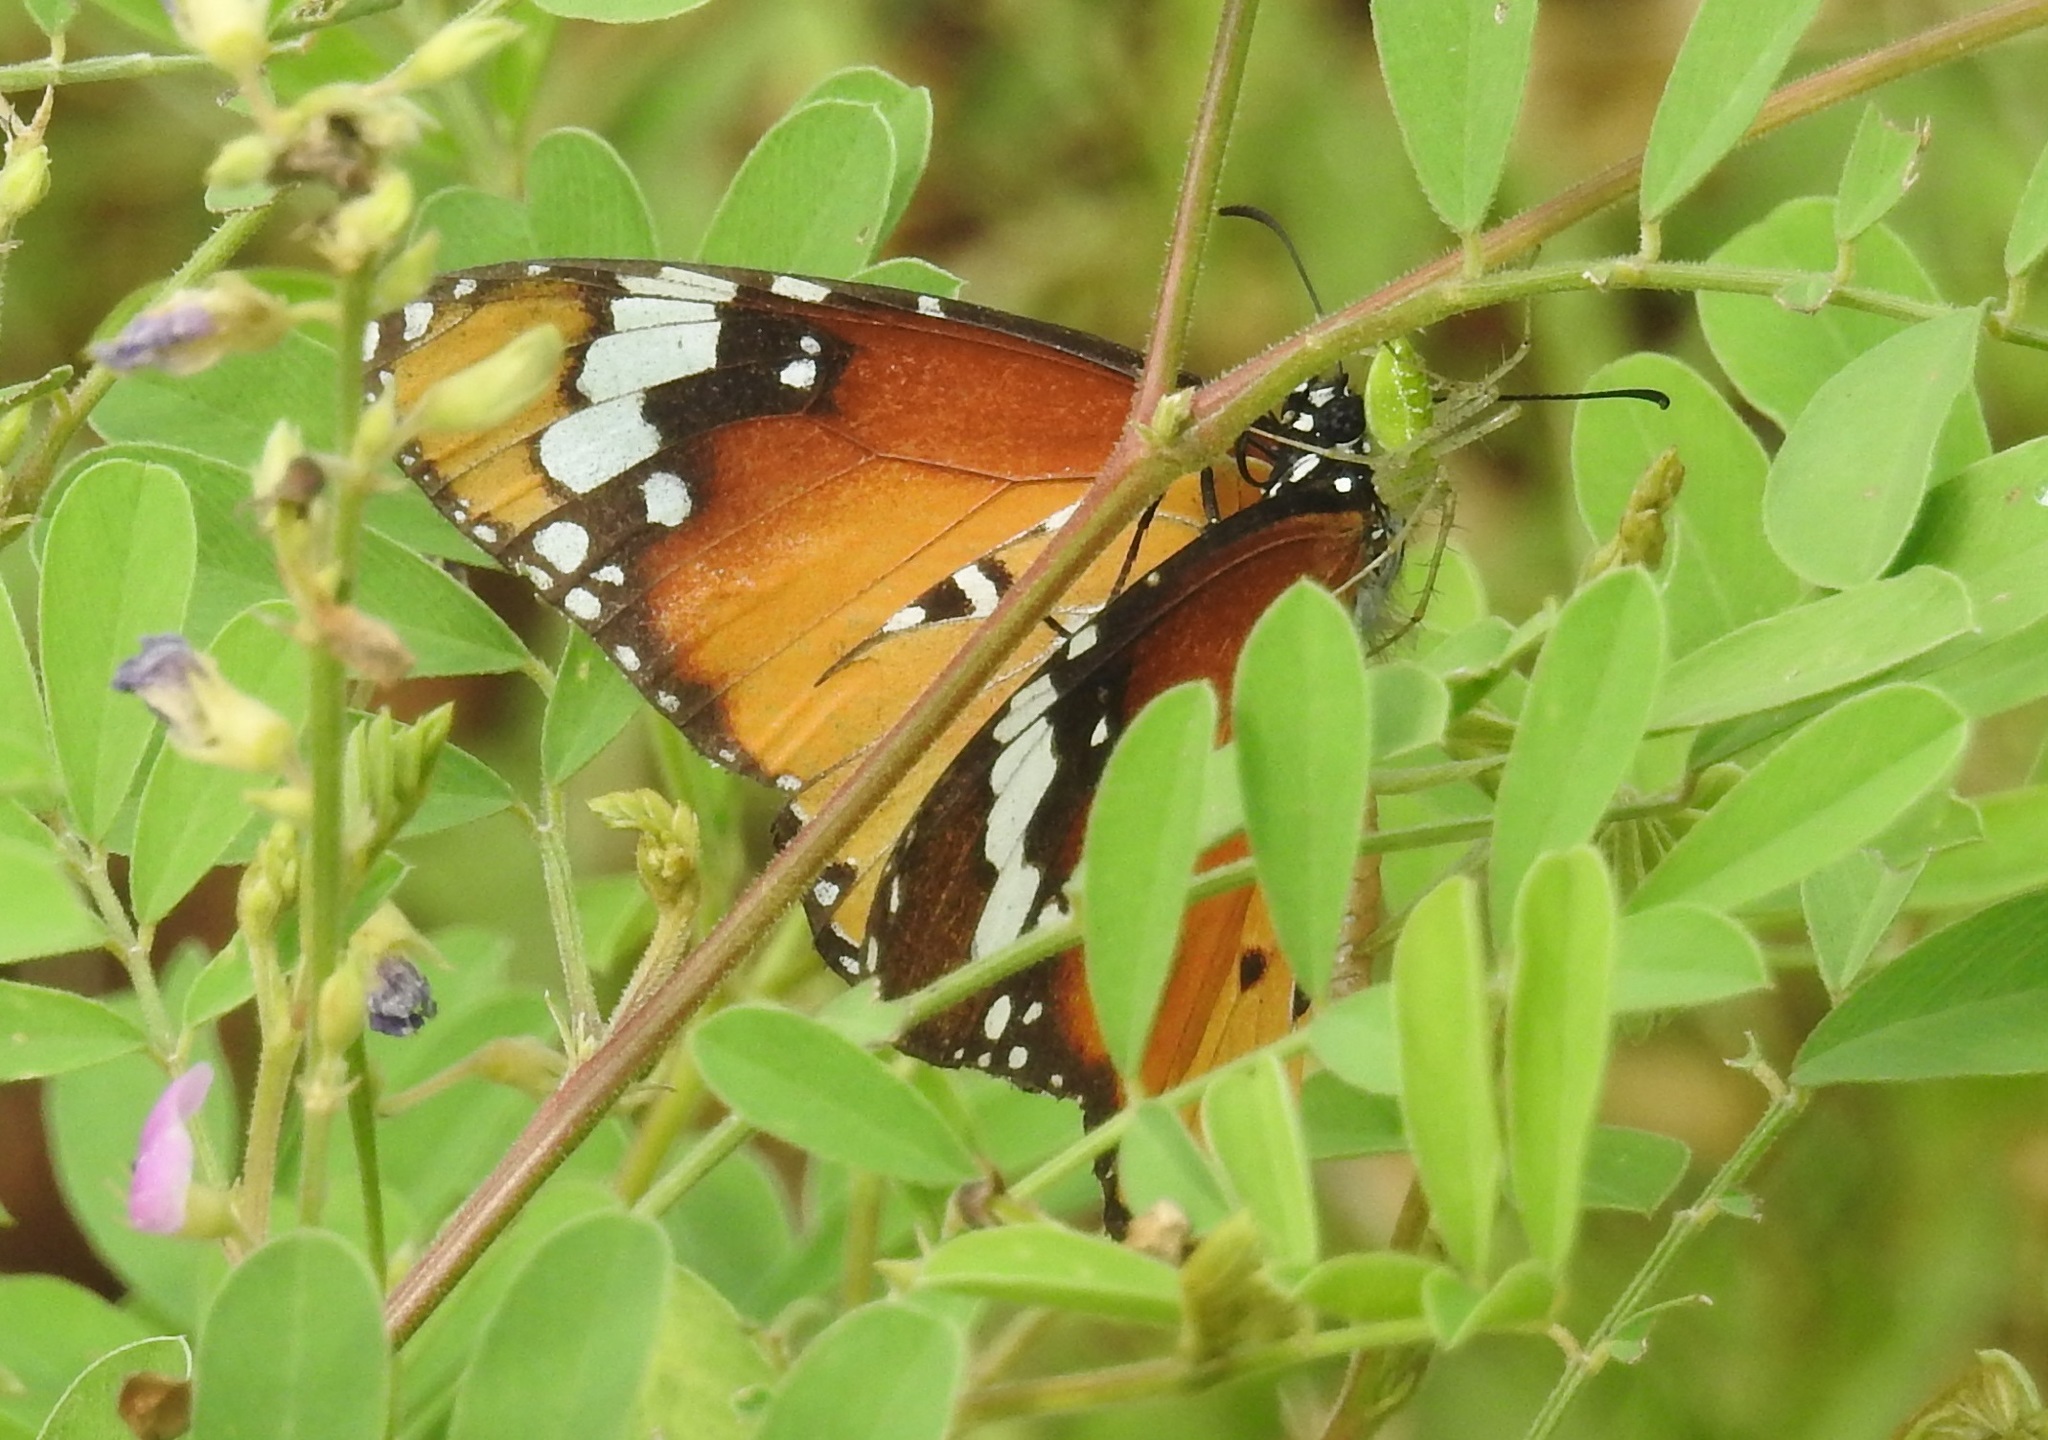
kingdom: Animalia
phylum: Arthropoda
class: Insecta
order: Lepidoptera
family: Nymphalidae
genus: Danaus
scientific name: Danaus chrysippus
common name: Plain tiger
